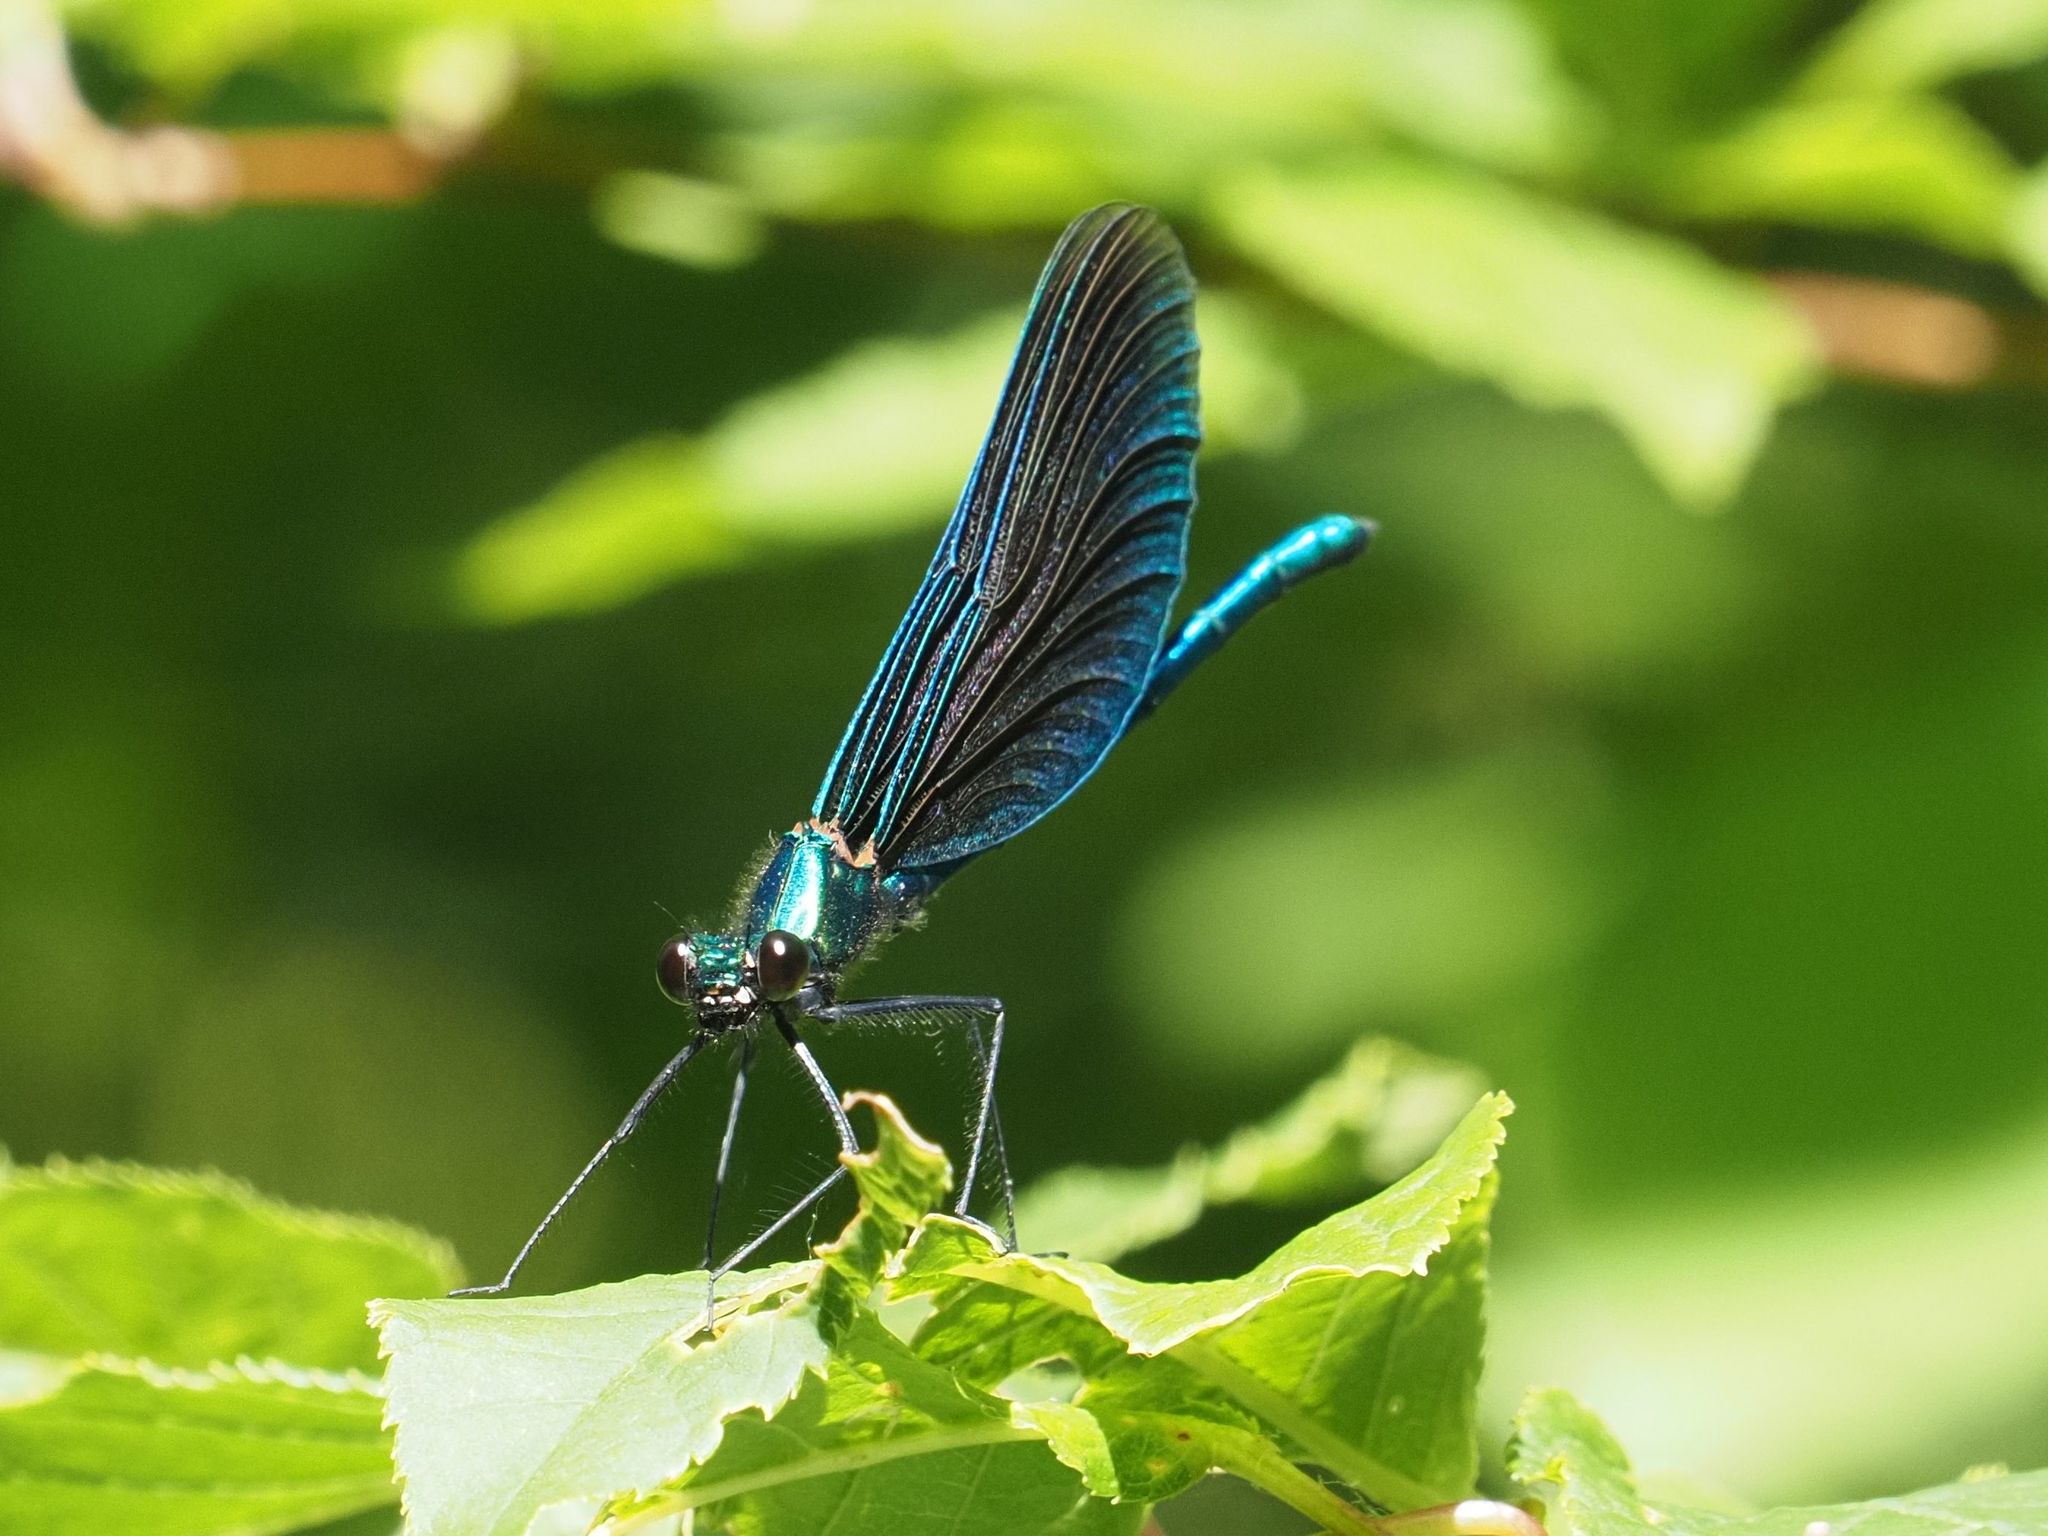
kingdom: Animalia
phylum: Arthropoda
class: Insecta
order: Odonata
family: Calopterygidae
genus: Calopteryx
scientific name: Calopteryx virgo
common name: Beautiful demoiselle
